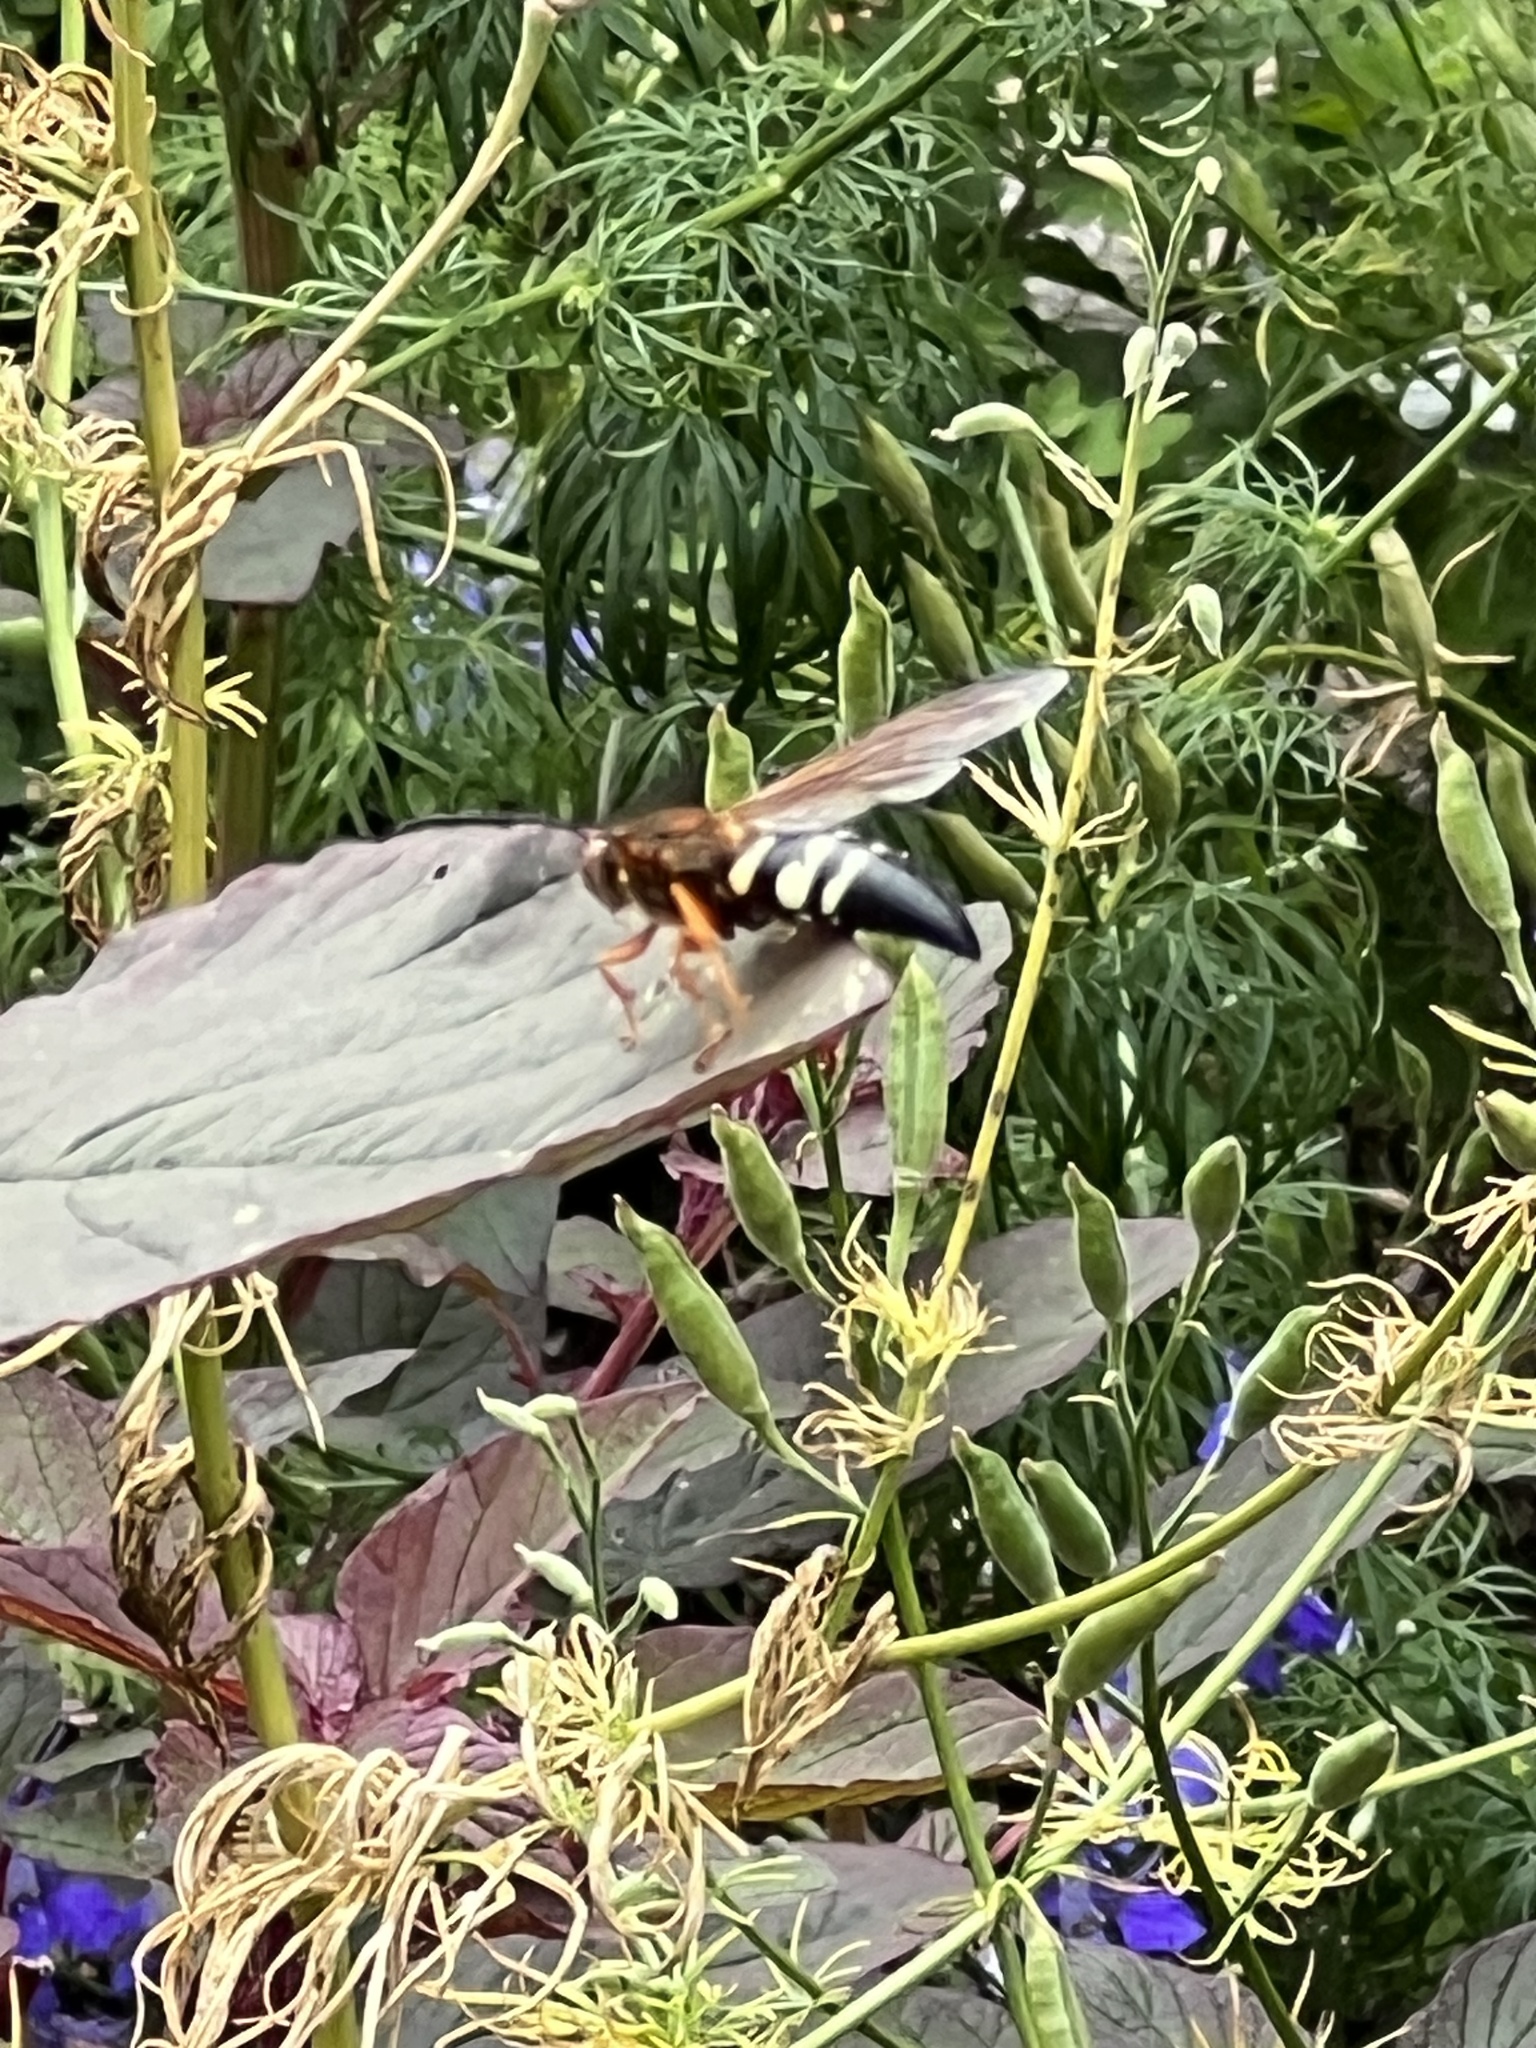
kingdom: Animalia
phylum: Arthropoda
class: Insecta
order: Hymenoptera
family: Crabronidae
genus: Sphecius
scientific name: Sphecius speciosus
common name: Cicada killer
